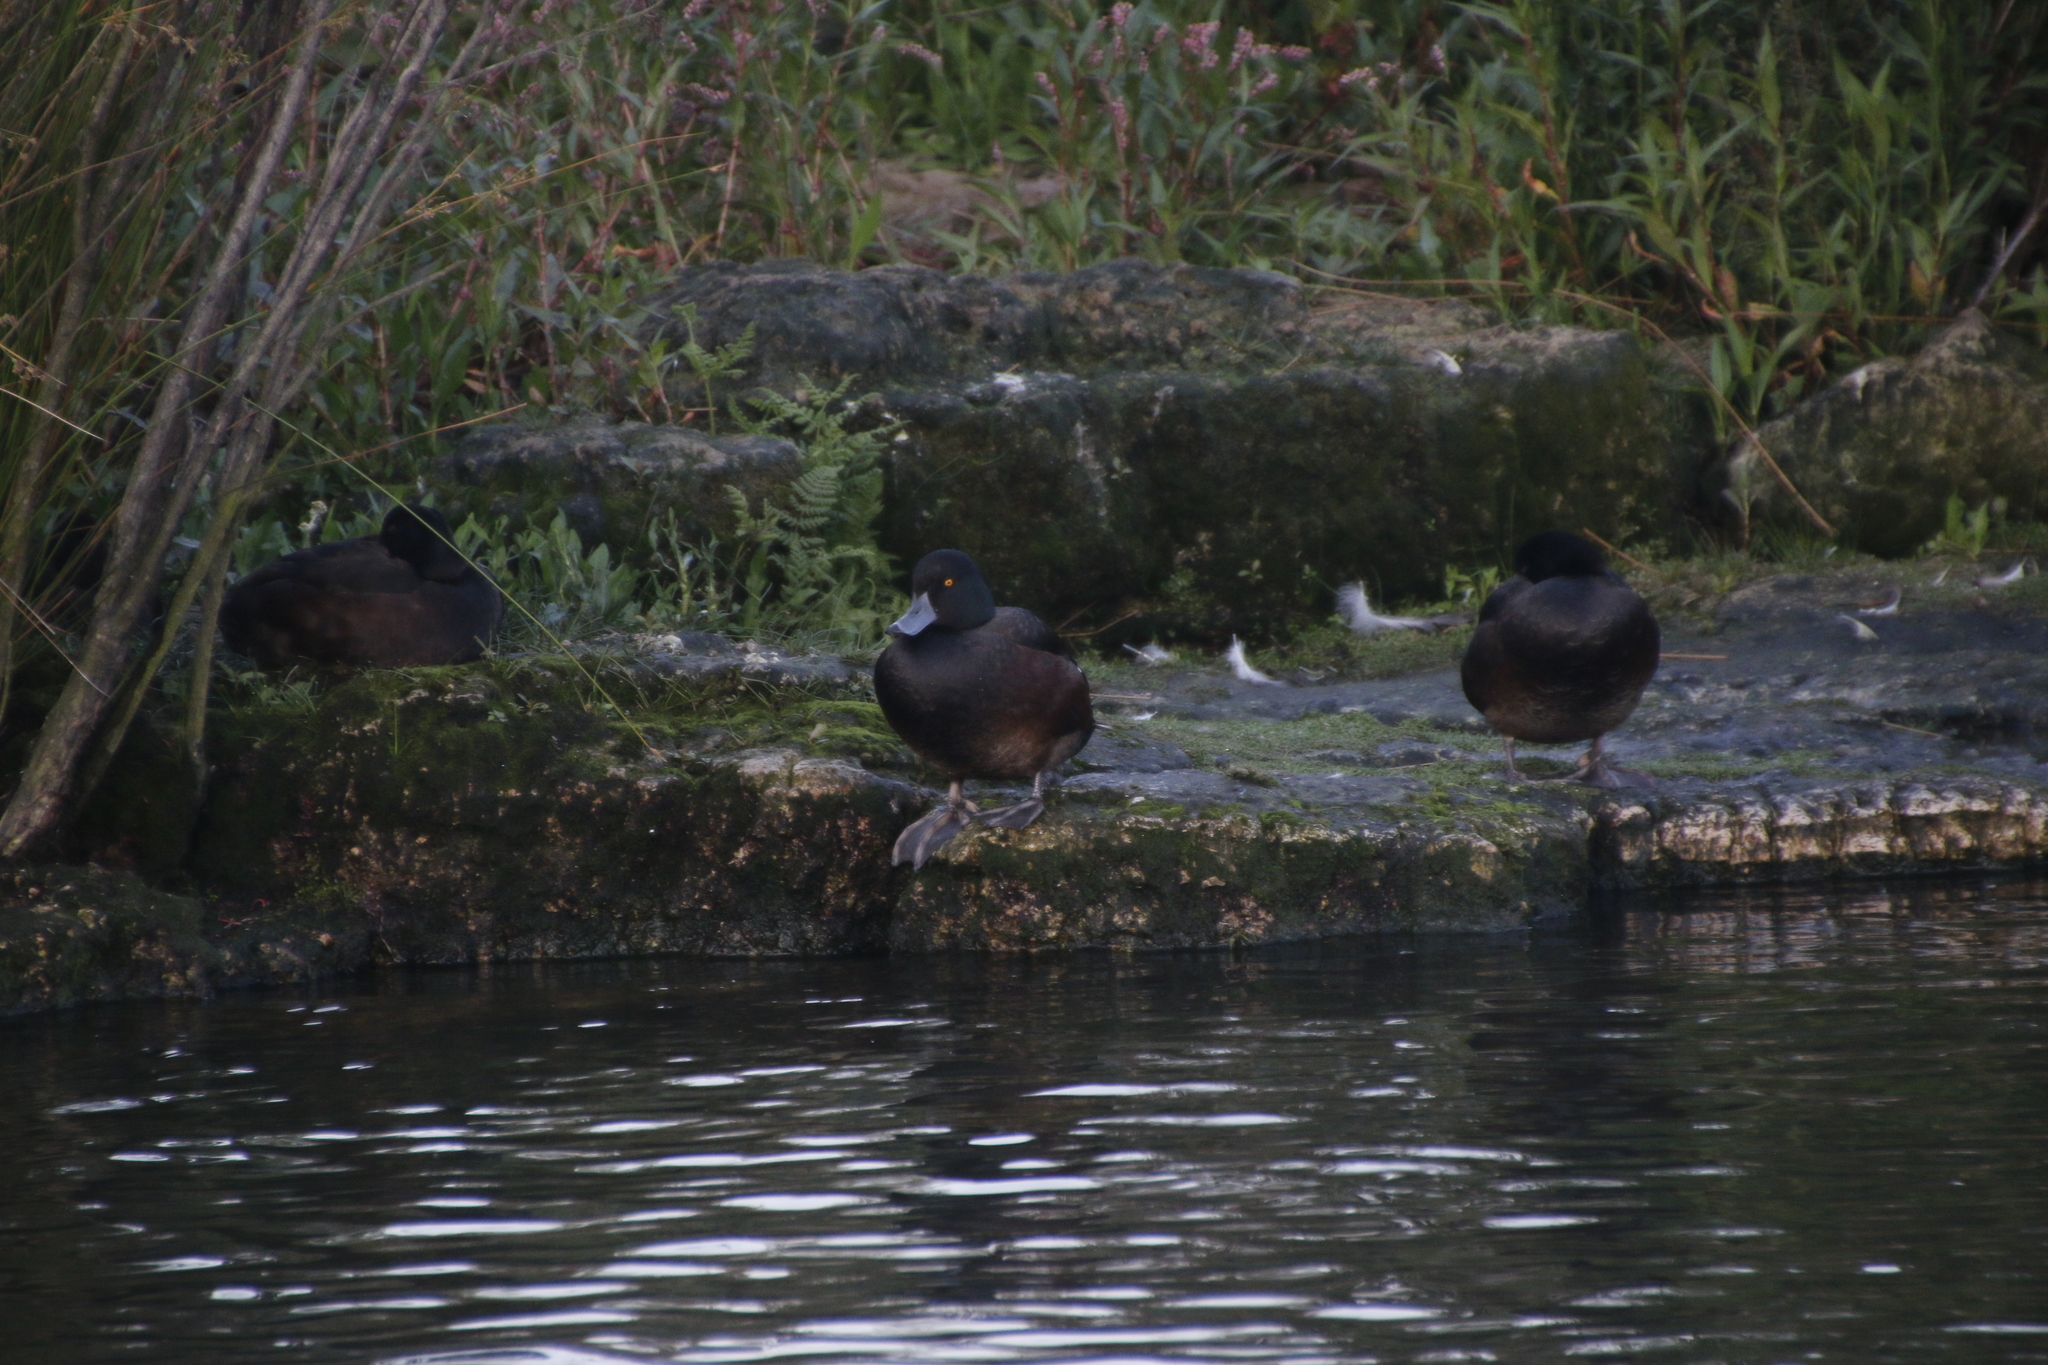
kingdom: Animalia
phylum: Chordata
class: Aves
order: Anseriformes
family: Anatidae
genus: Aythya
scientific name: Aythya novaeseelandiae
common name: New zealand scaup
